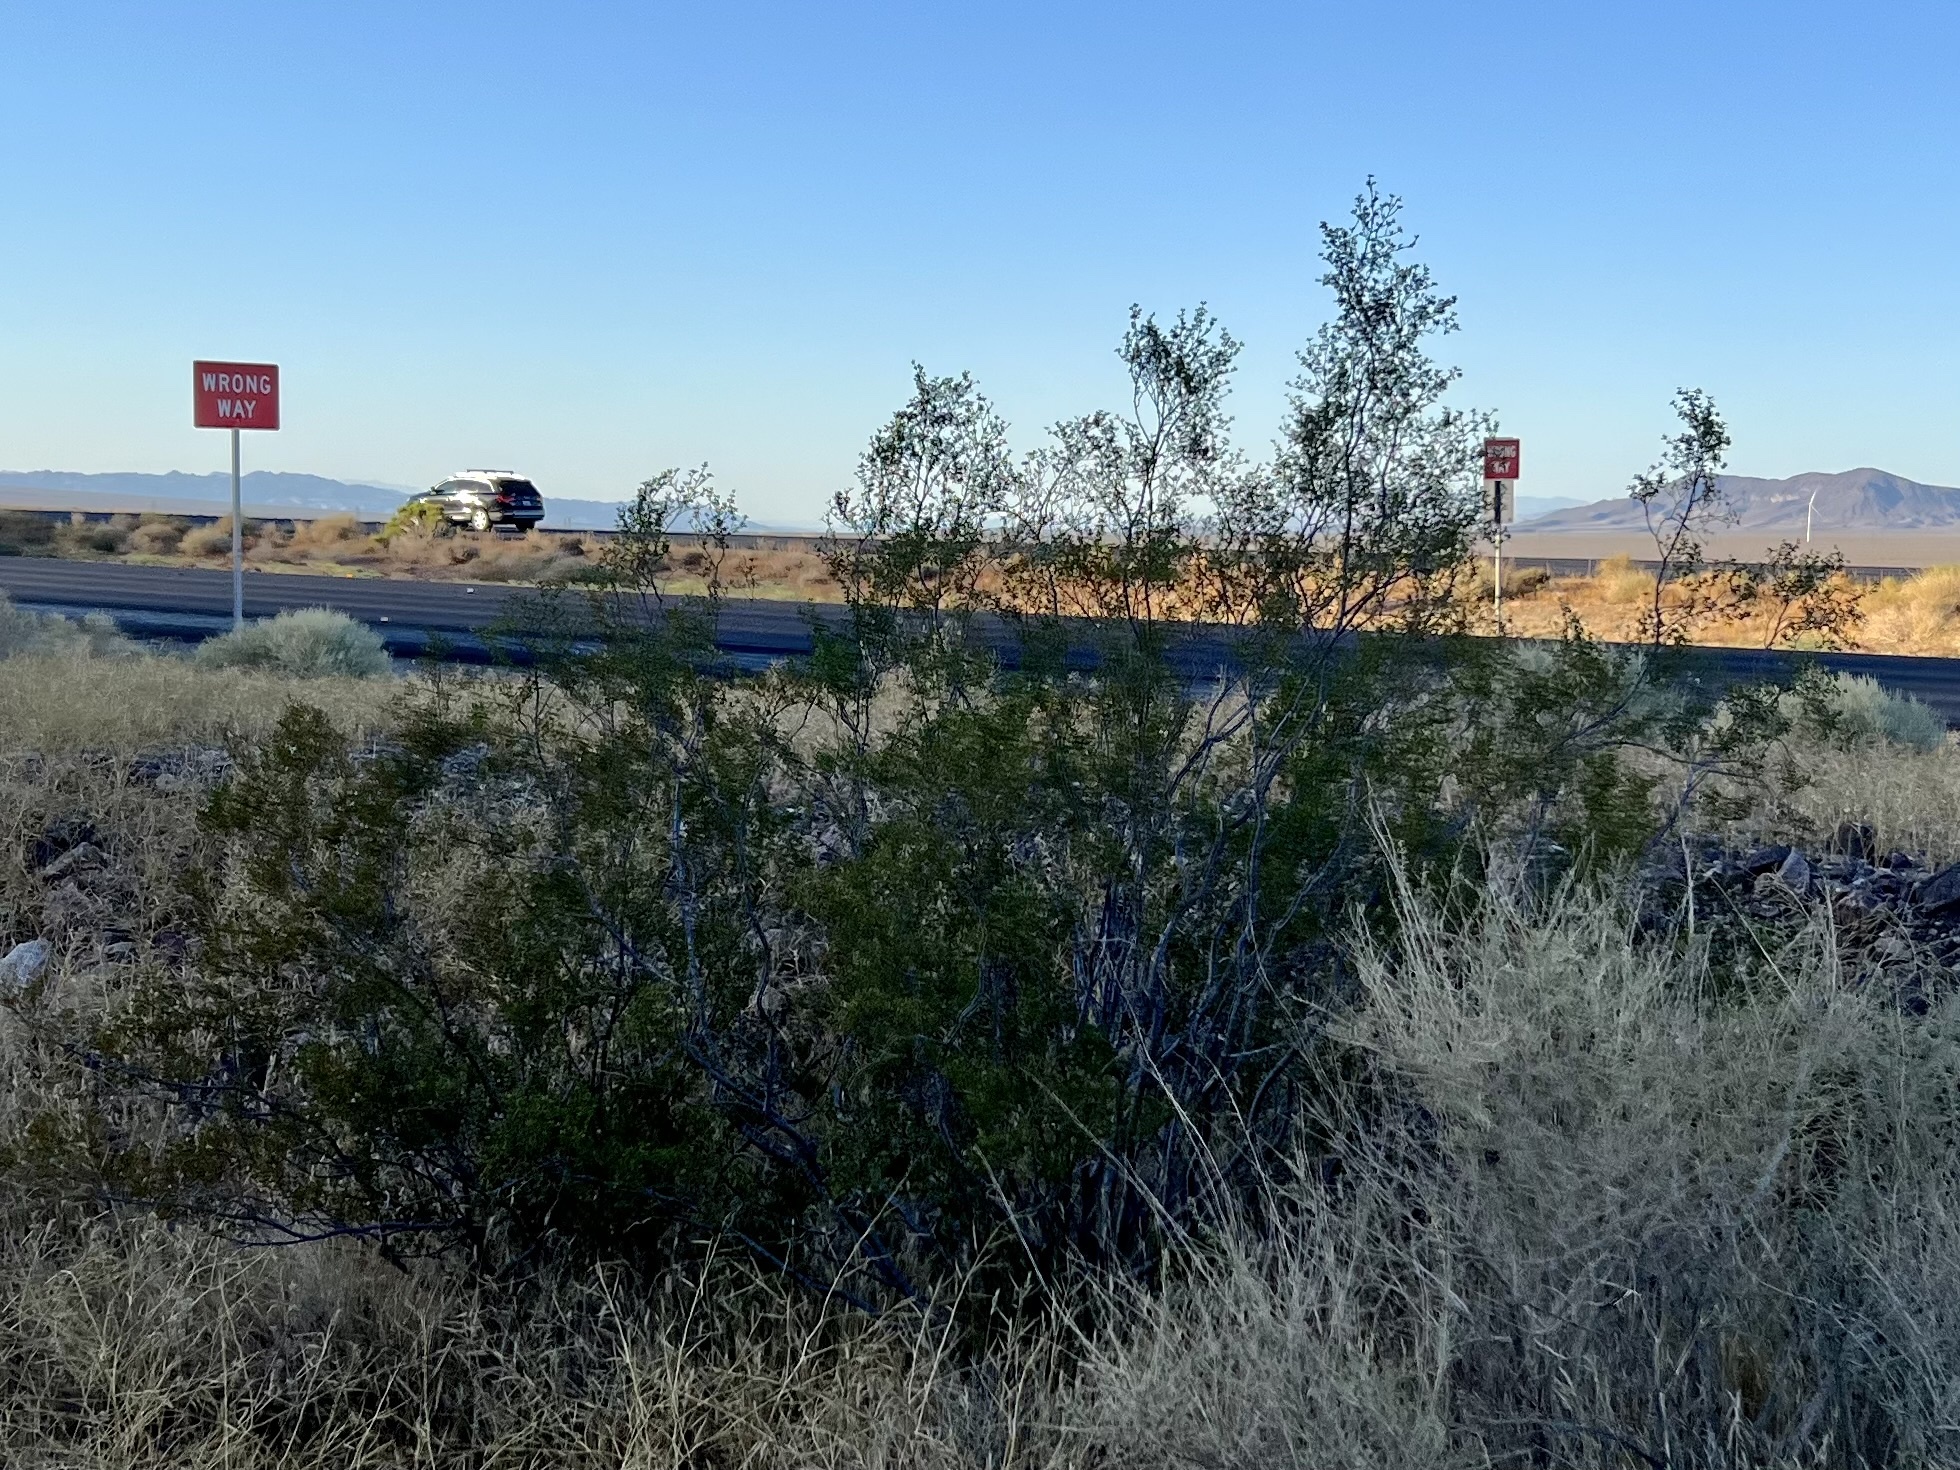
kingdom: Plantae
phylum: Tracheophyta
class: Magnoliopsida
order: Zygophyllales
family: Zygophyllaceae
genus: Larrea
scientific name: Larrea tridentata
